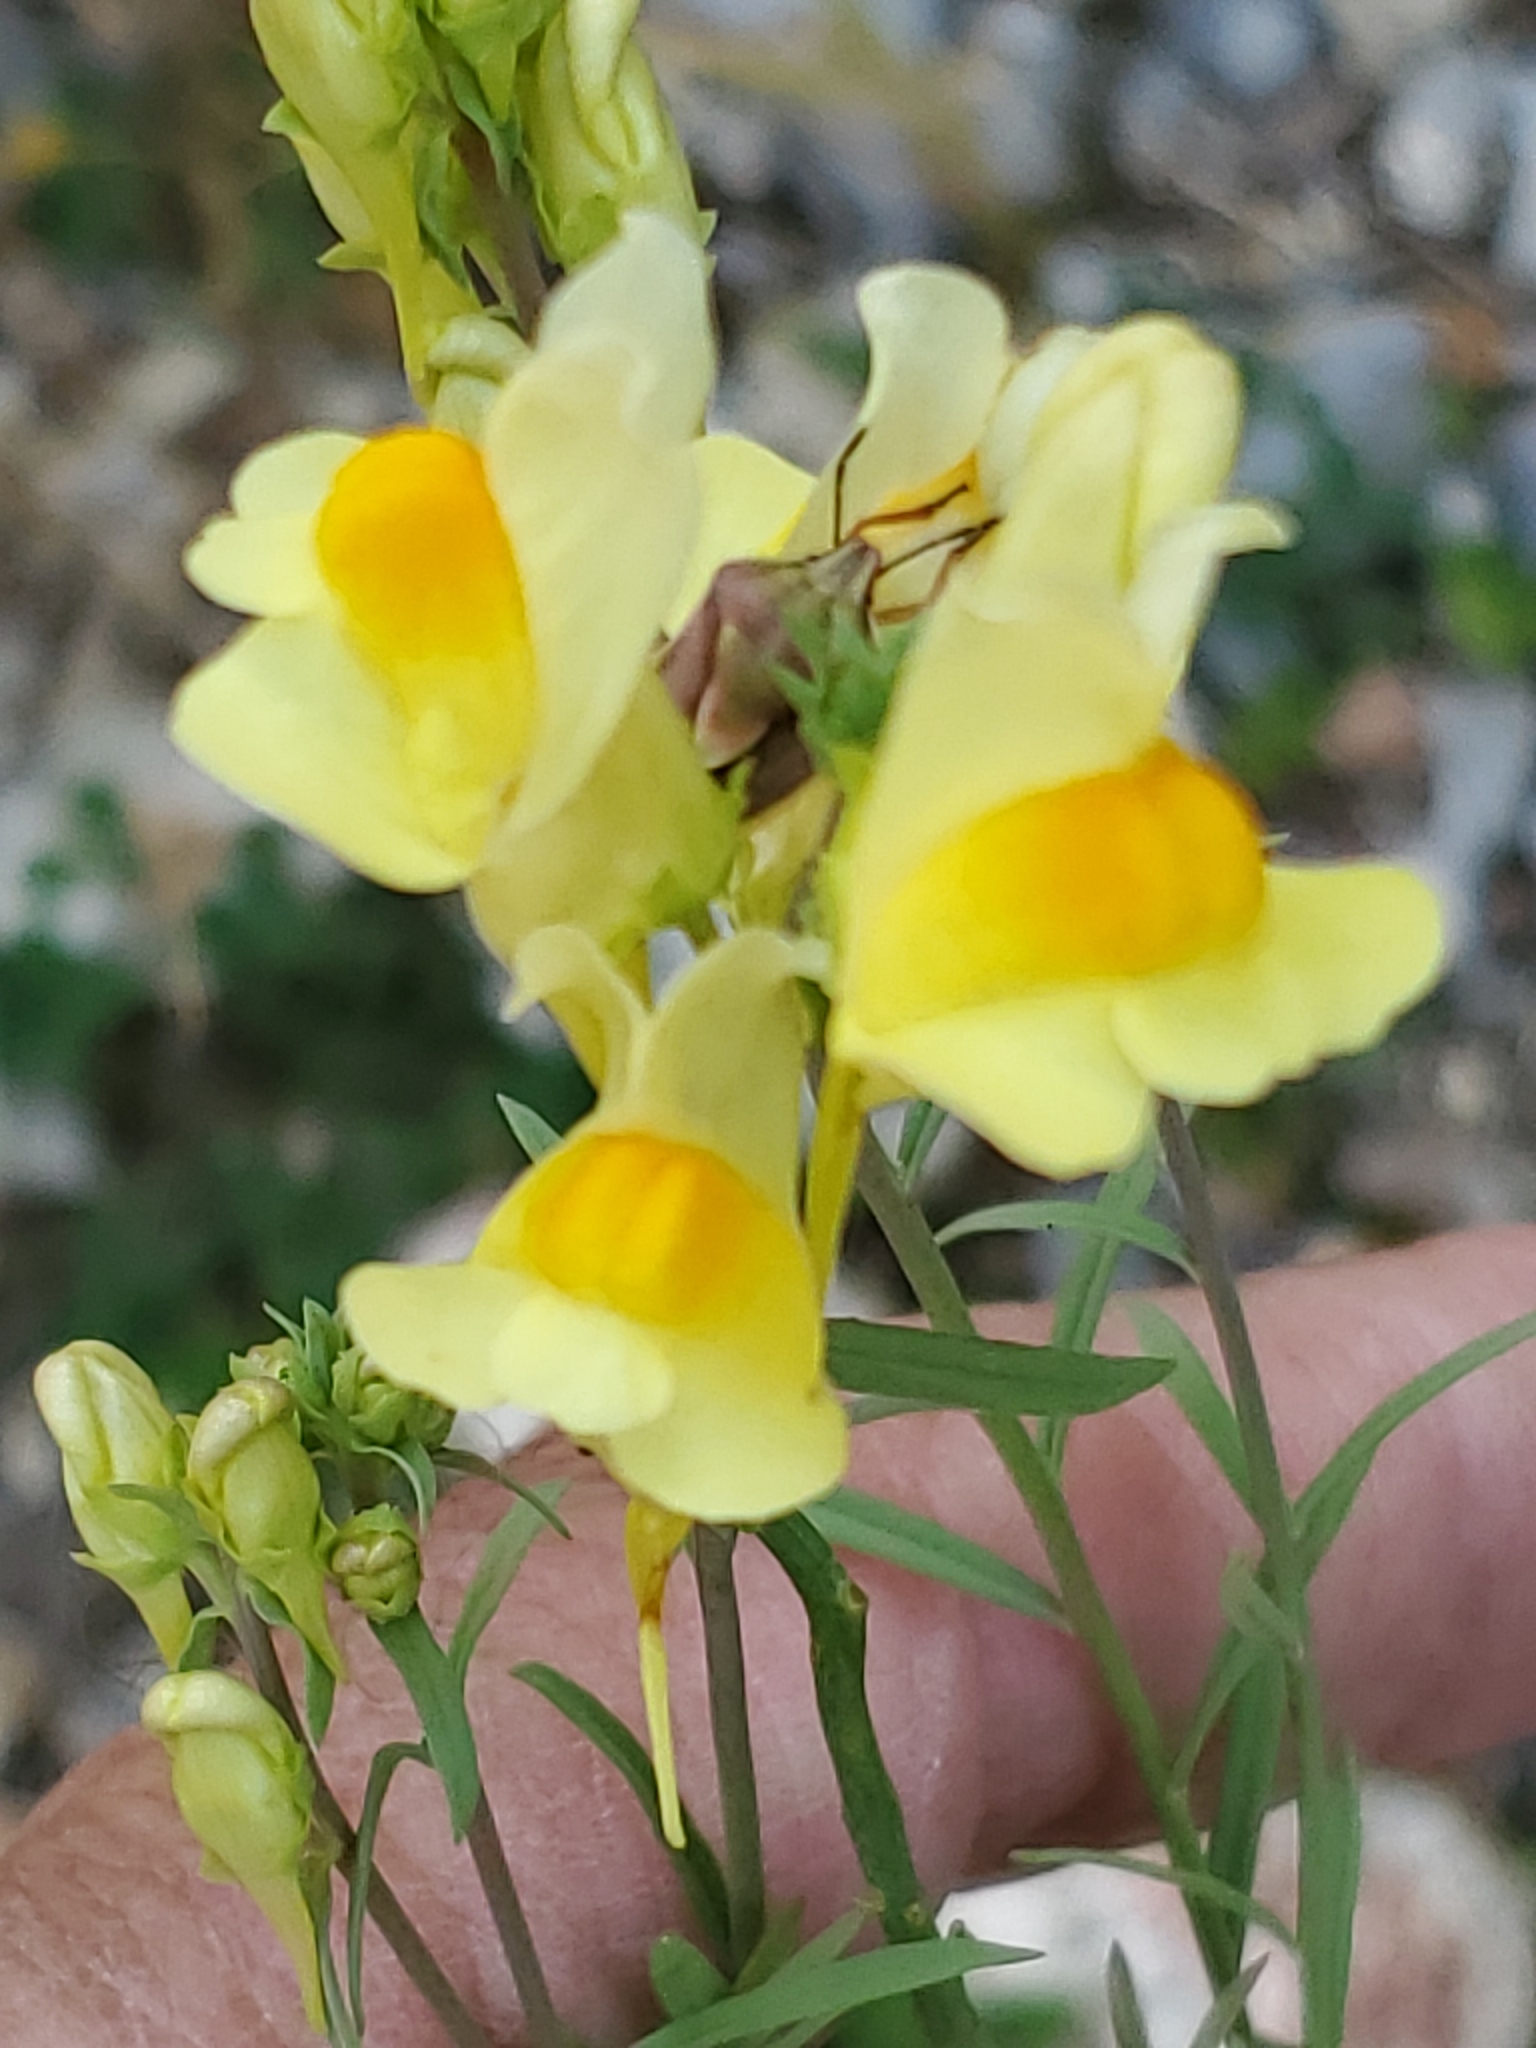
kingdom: Plantae
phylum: Tracheophyta
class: Magnoliopsida
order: Lamiales
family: Plantaginaceae
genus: Linaria
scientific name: Linaria vulgaris
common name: Butter and eggs
